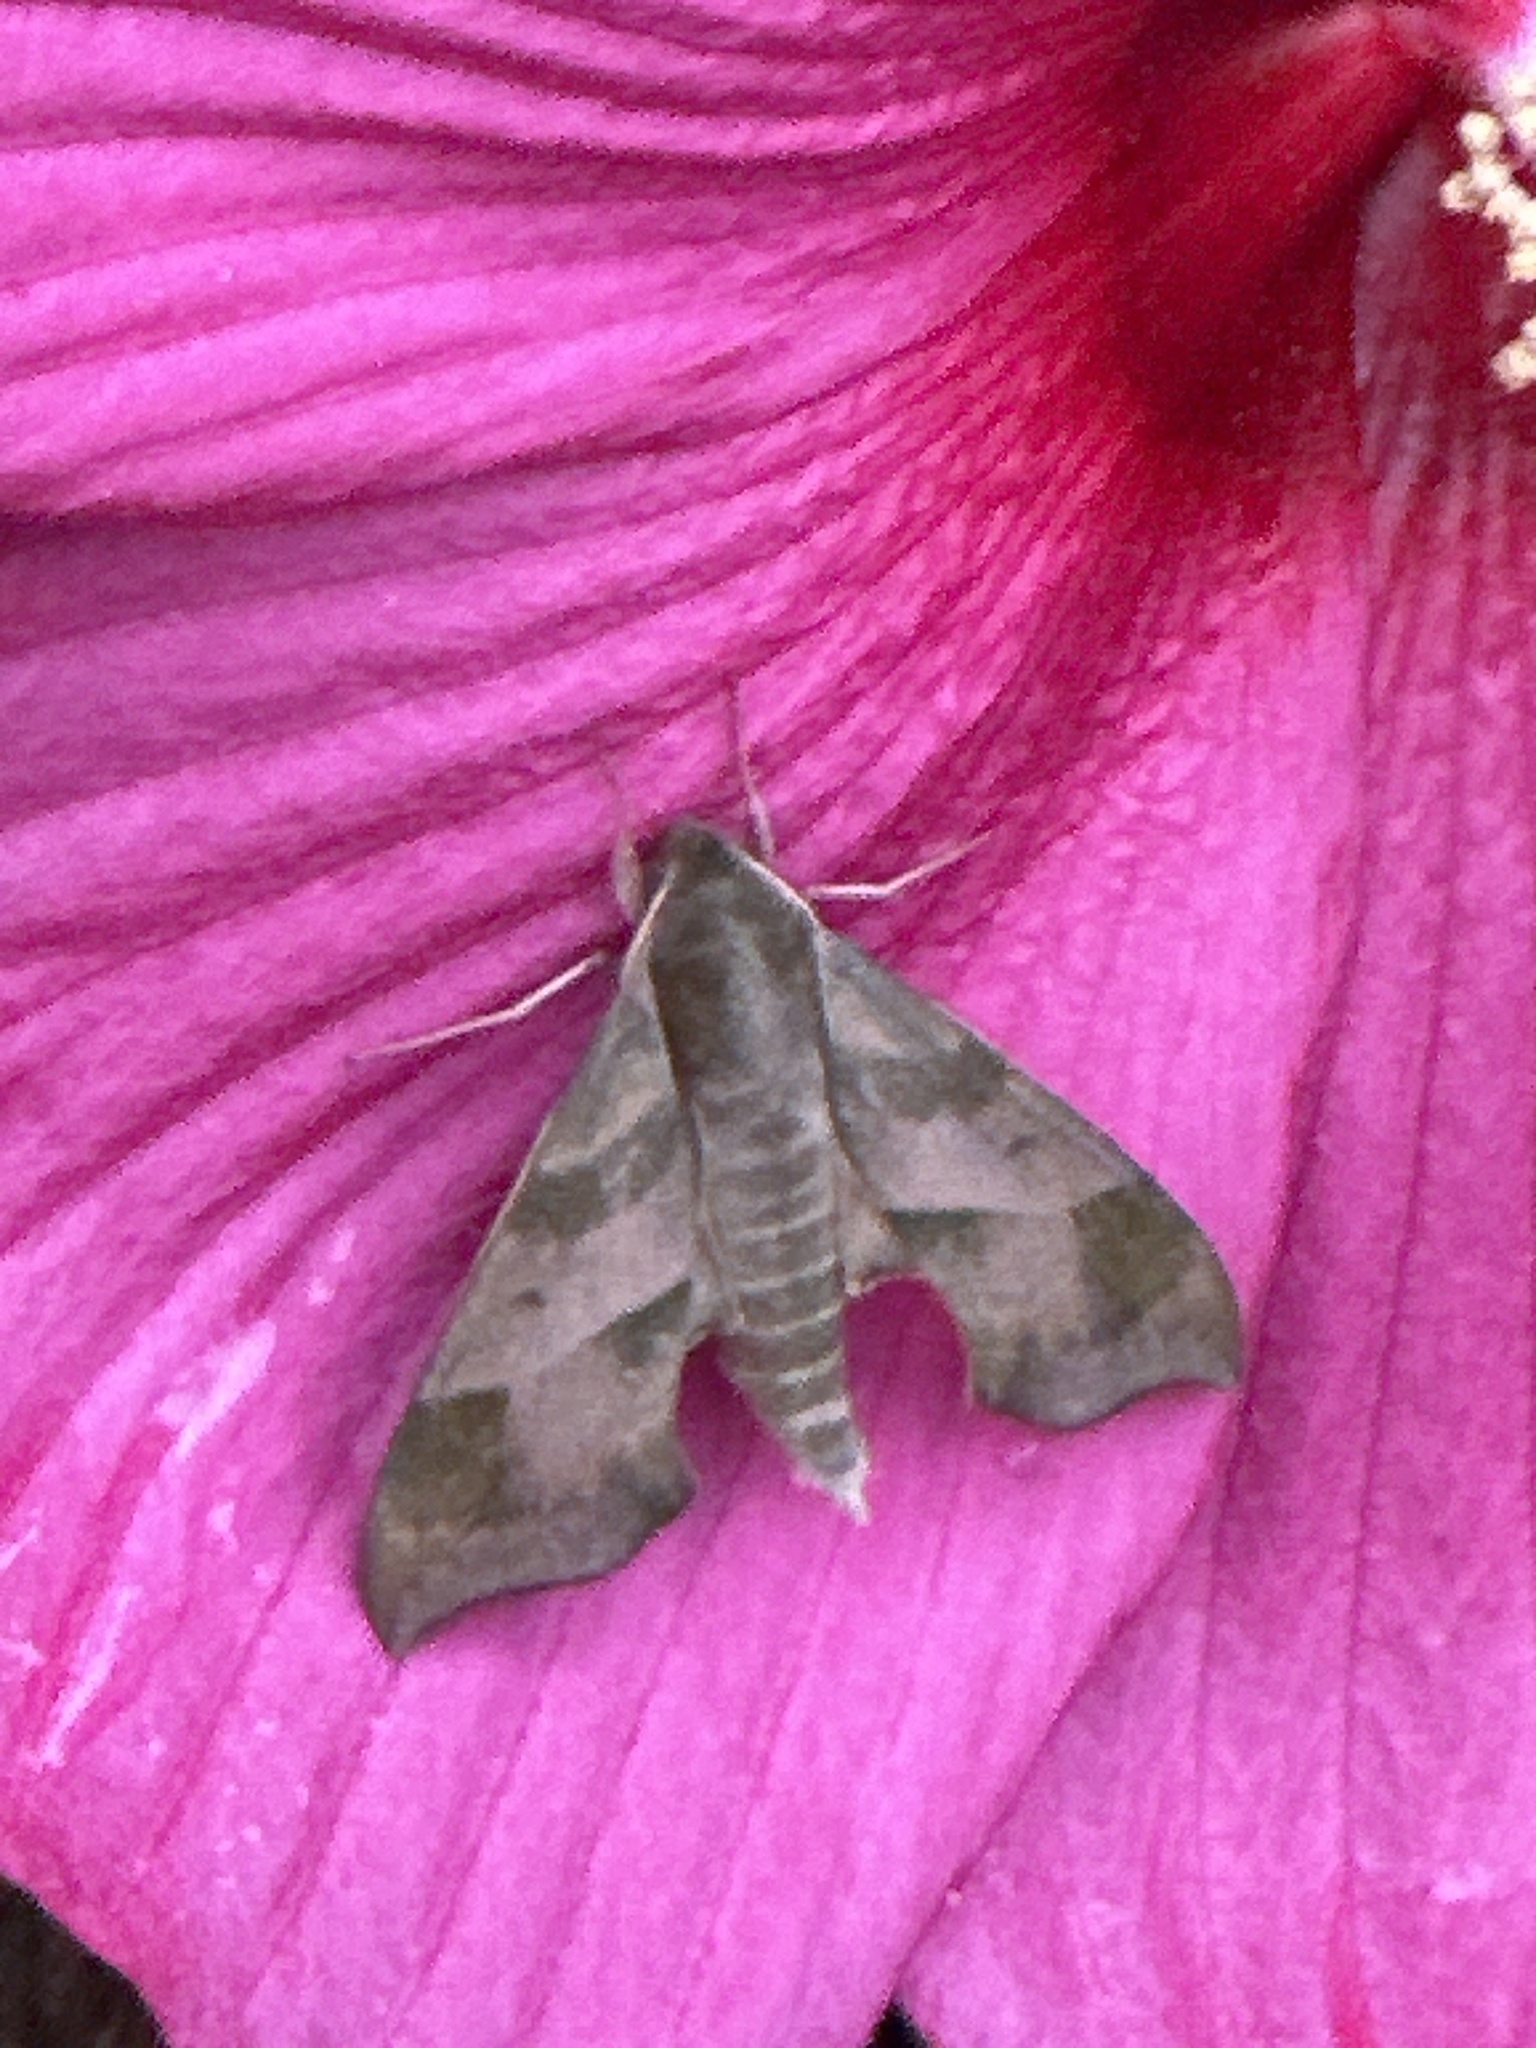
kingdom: Animalia
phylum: Arthropoda
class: Insecta
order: Lepidoptera
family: Sphingidae
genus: Darapsa
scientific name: Darapsa myron
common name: Hog sphinx
